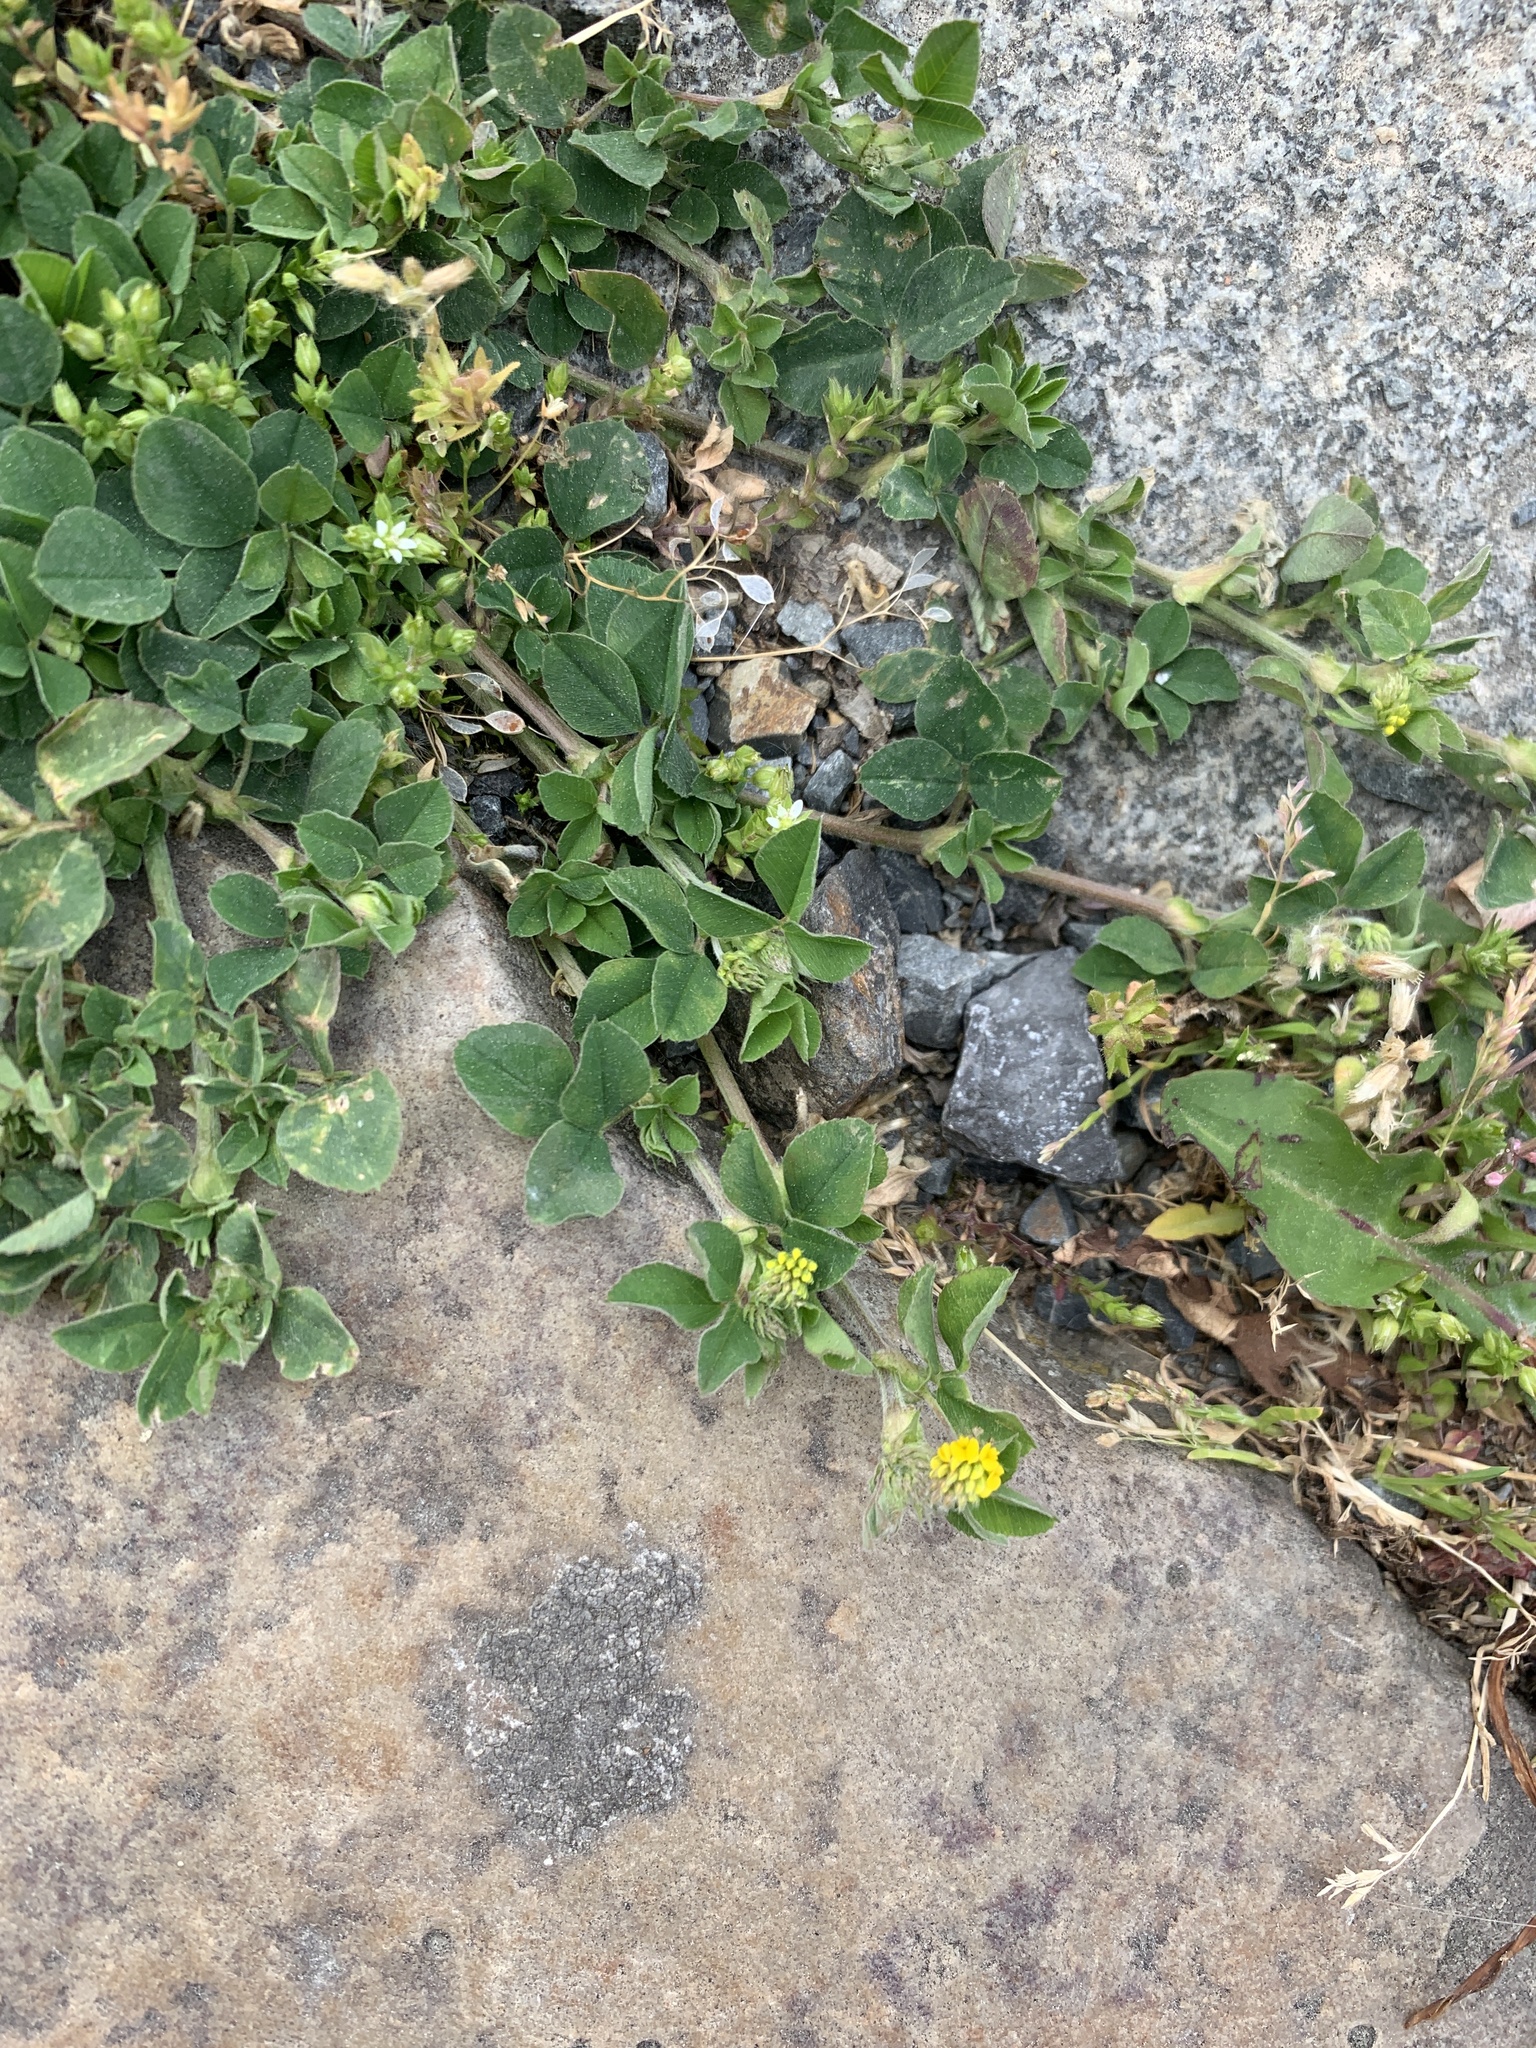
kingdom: Plantae
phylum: Tracheophyta
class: Magnoliopsida
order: Fabales
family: Fabaceae
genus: Medicago
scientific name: Medicago lupulina
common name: Black medick
